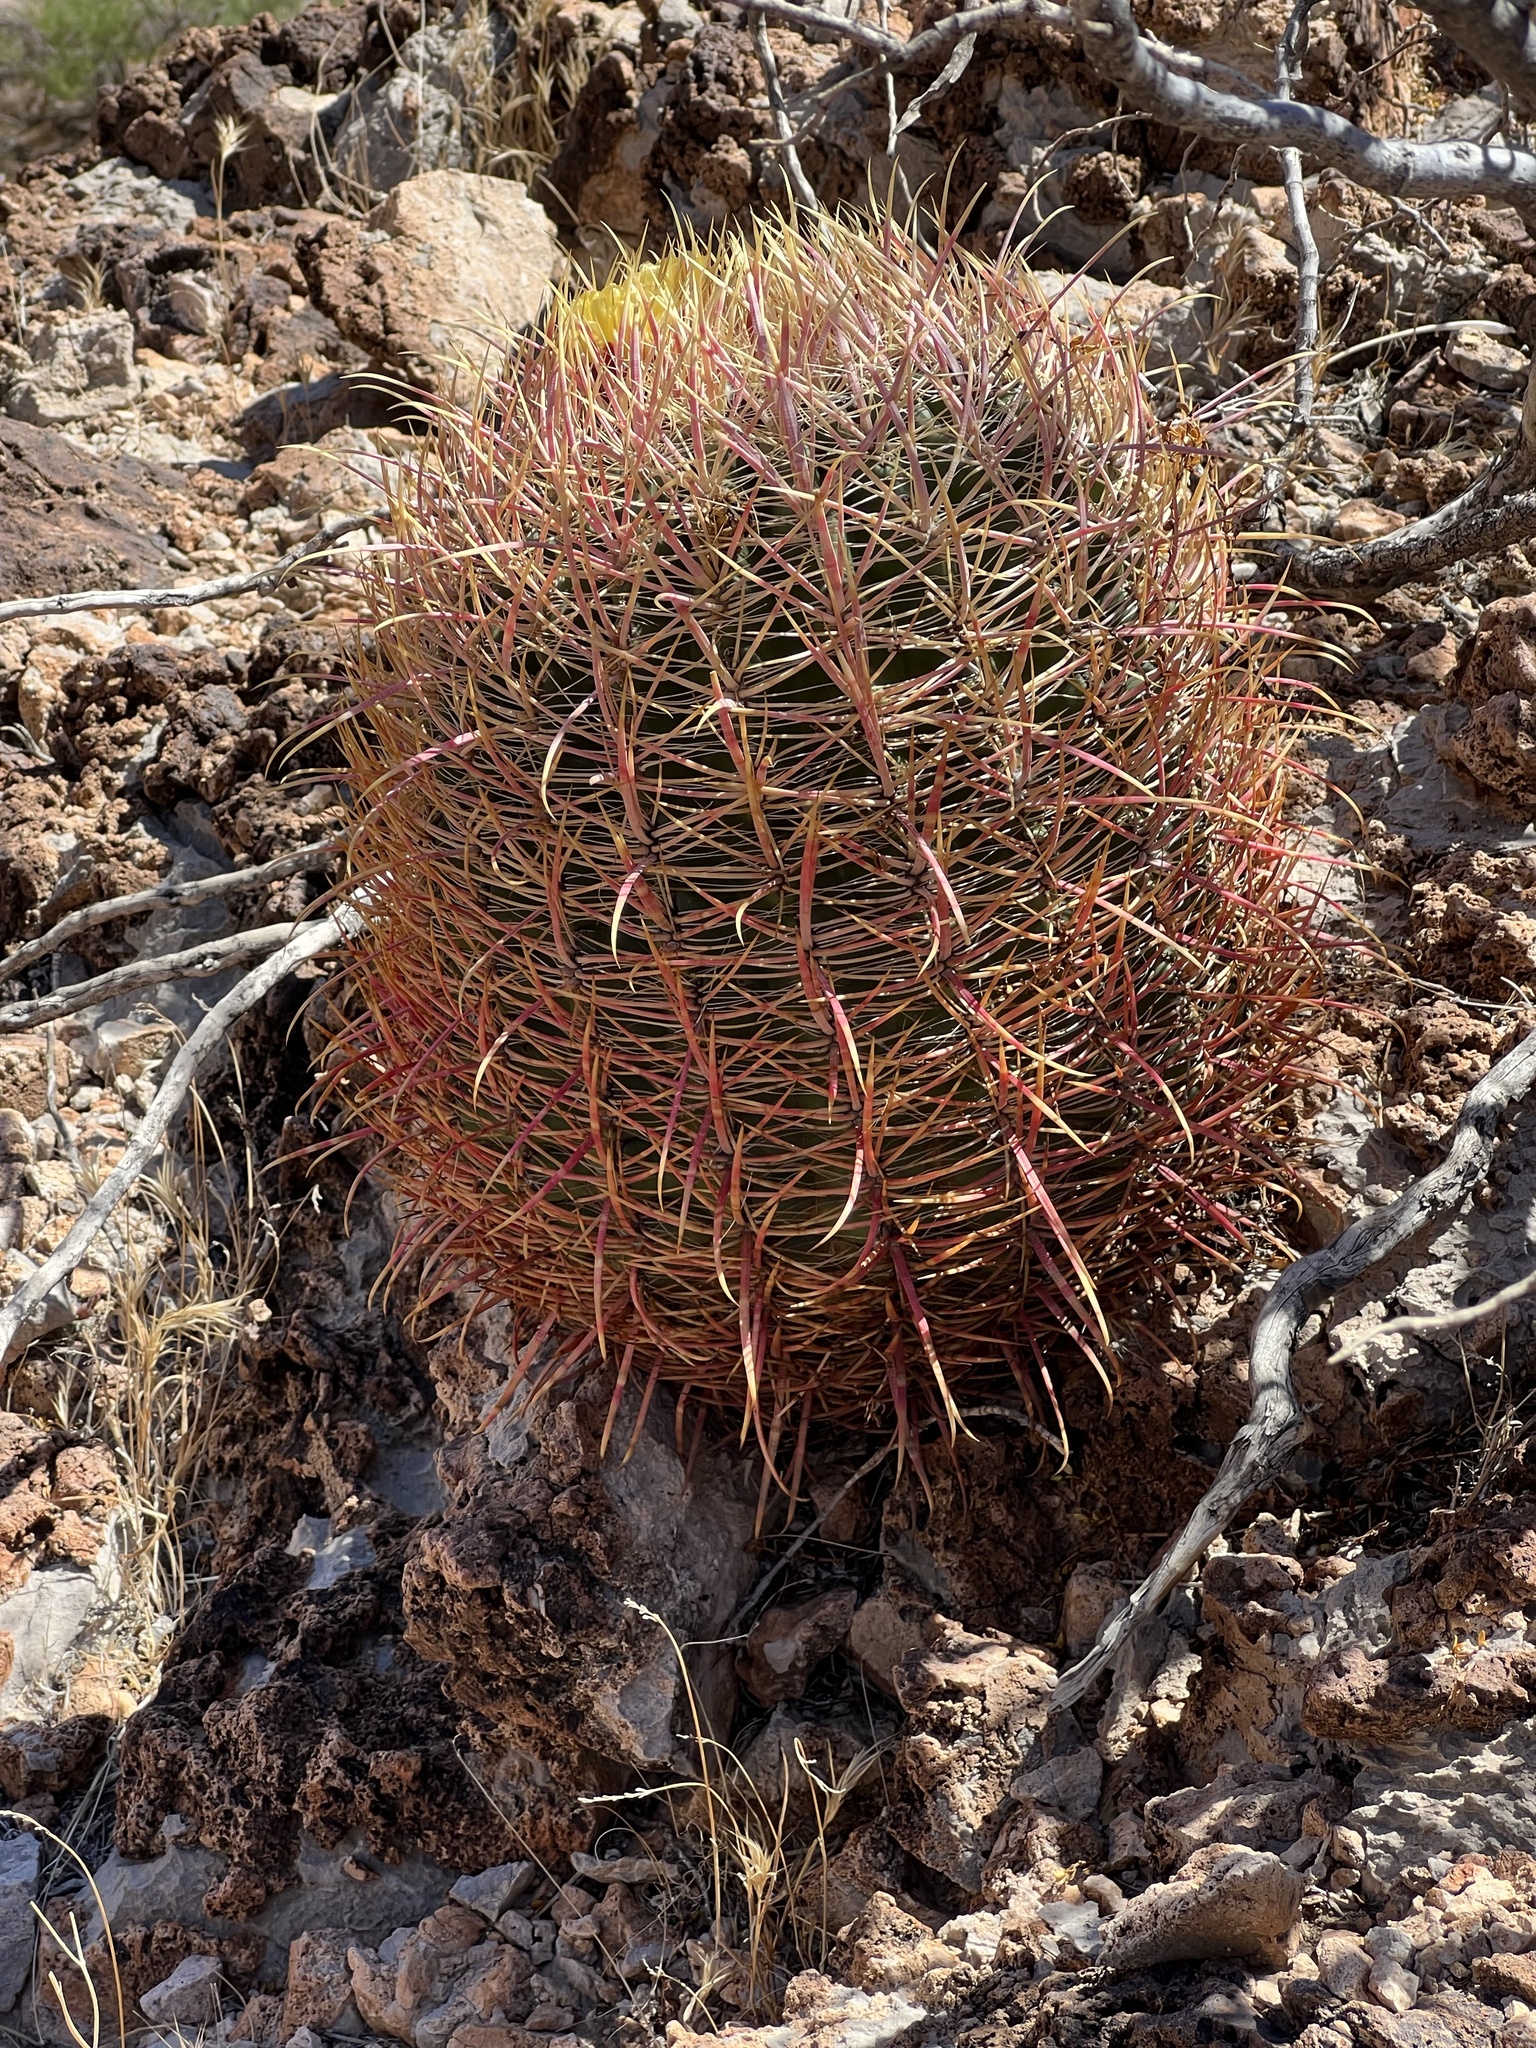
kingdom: Plantae
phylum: Tracheophyta
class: Magnoliopsida
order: Caryophyllales
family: Cactaceae
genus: Ferocactus
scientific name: Ferocactus cylindraceus
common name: California barrel cactus
